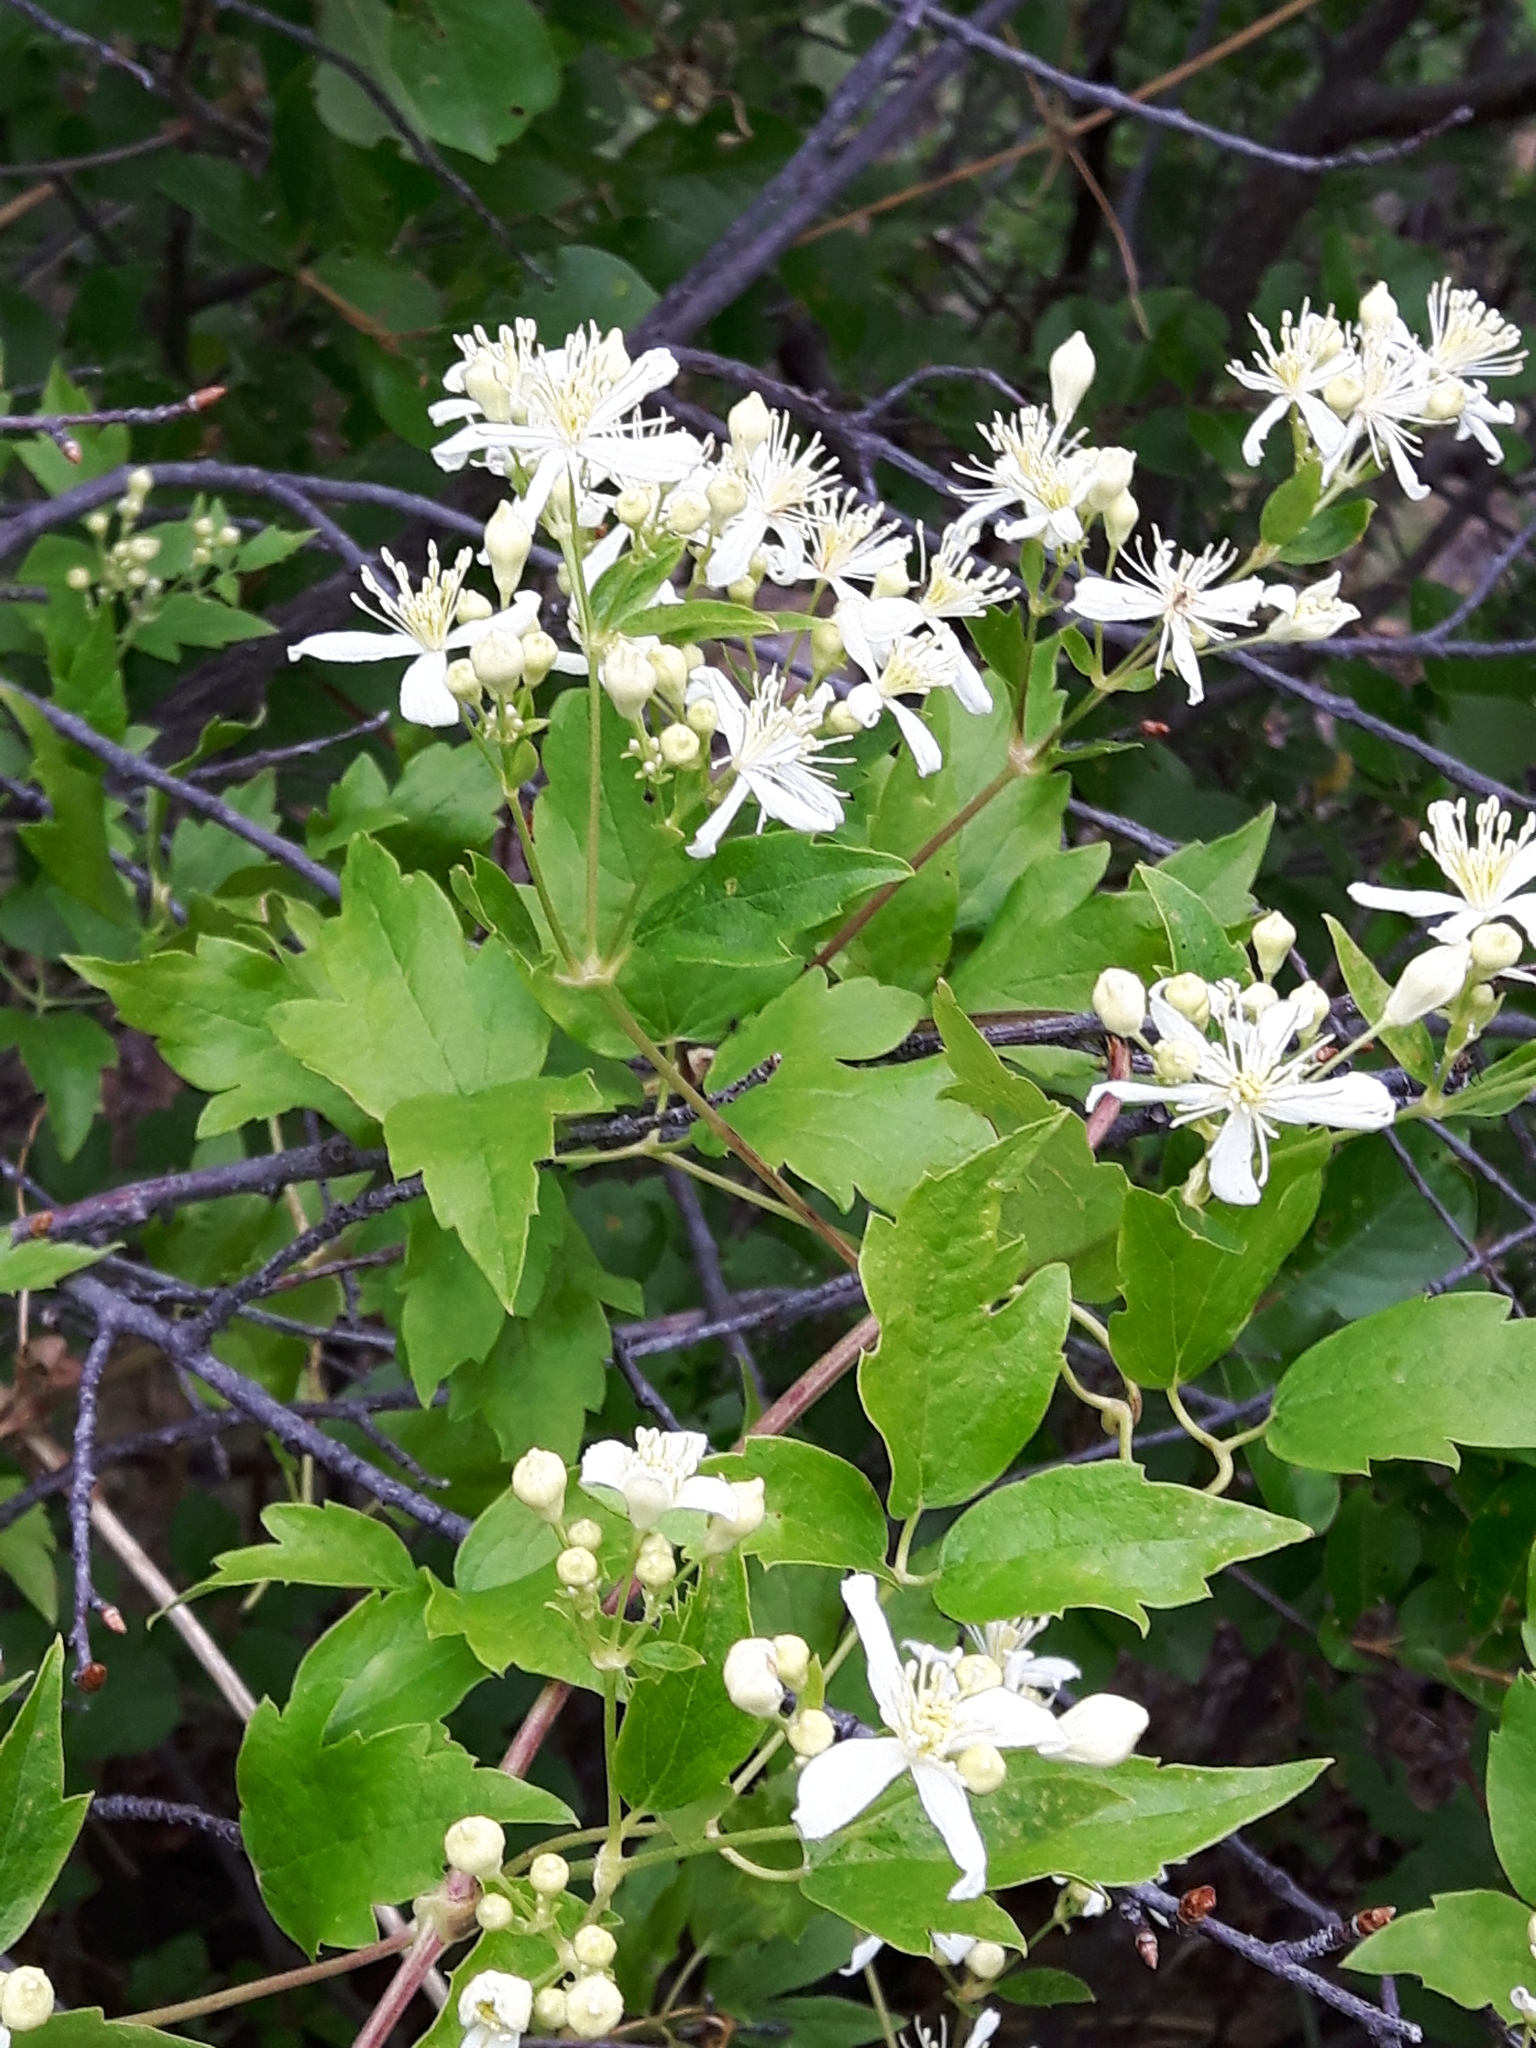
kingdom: Plantae
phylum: Tracheophyta
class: Magnoliopsida
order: Ranunculales
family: Ranunculaceae
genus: Clematis
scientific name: Clematis ligusticifolia
